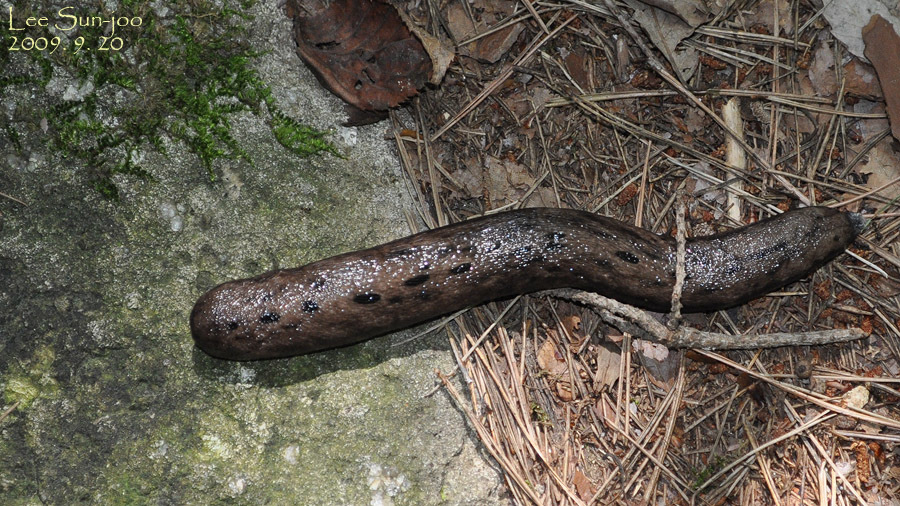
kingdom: Animalia
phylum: Mollusca
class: Gastropoda
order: Stylommatophora
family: Philomycidae
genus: Meghimatium
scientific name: Meghimatium fruhstorferi
